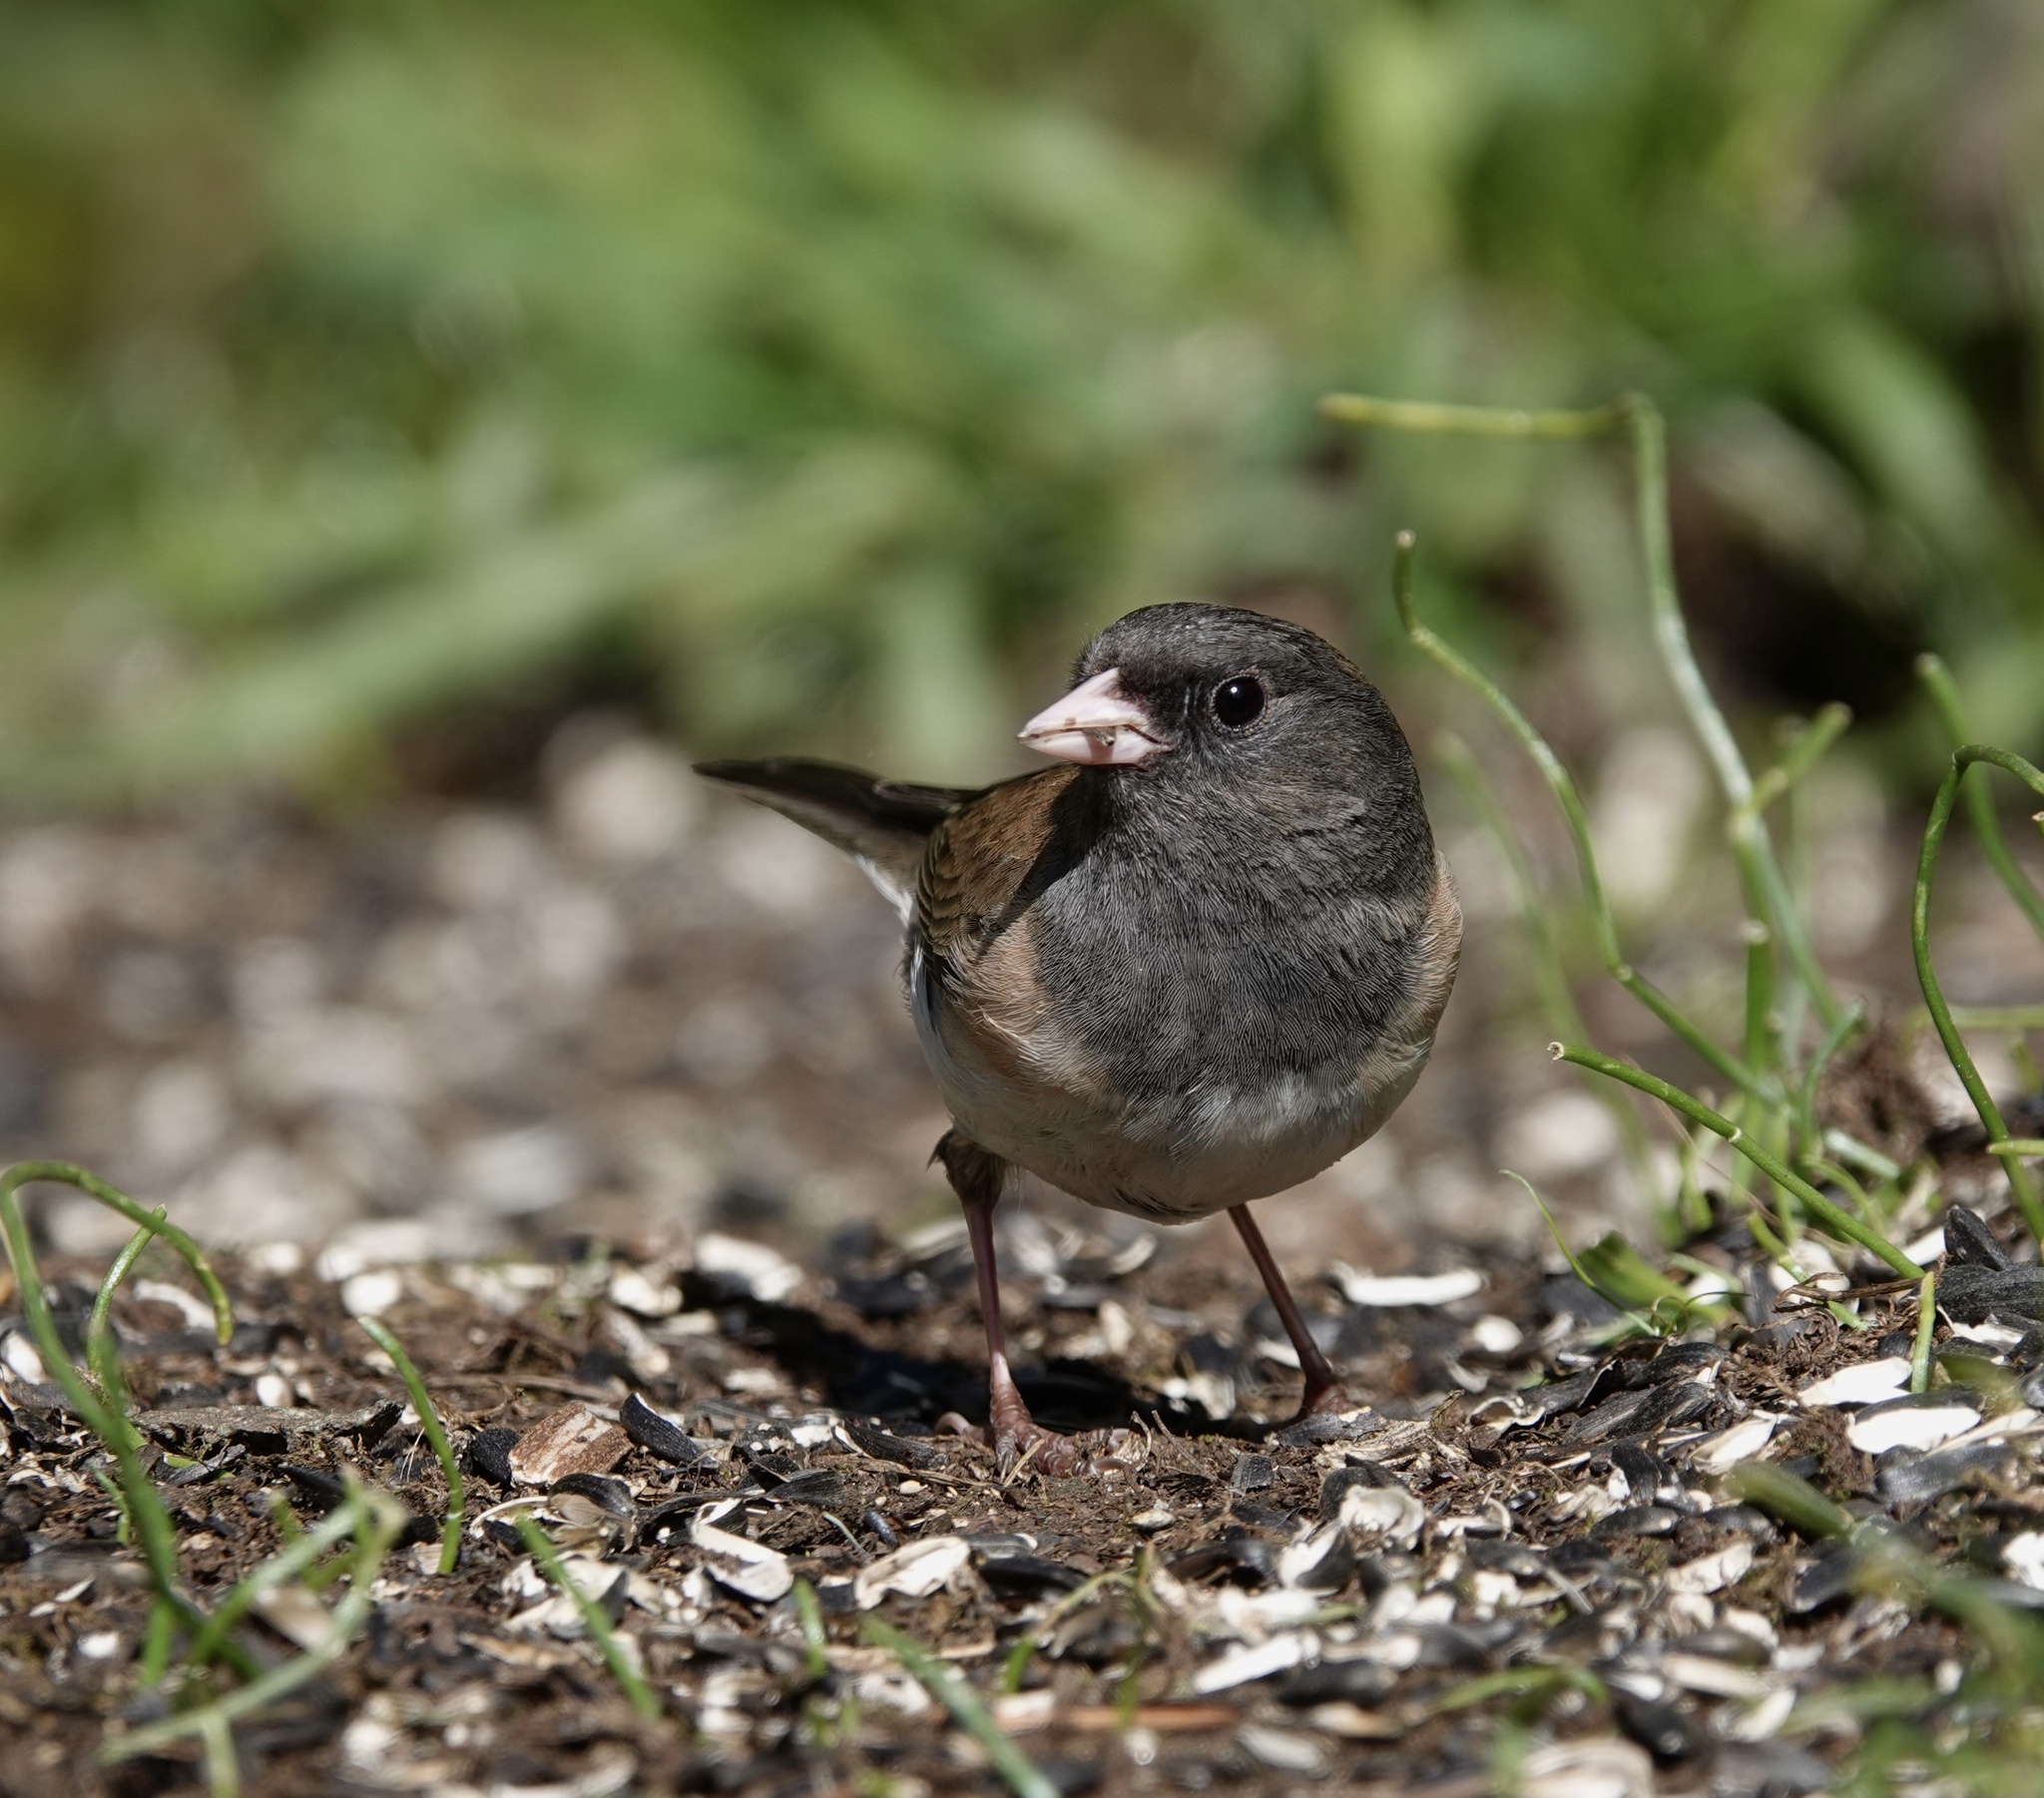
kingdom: Animalia
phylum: Chordata
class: Aves
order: Passeriformes
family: Passerellidae
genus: Junco
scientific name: Junco hyemalis
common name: Dark-eyed junco
